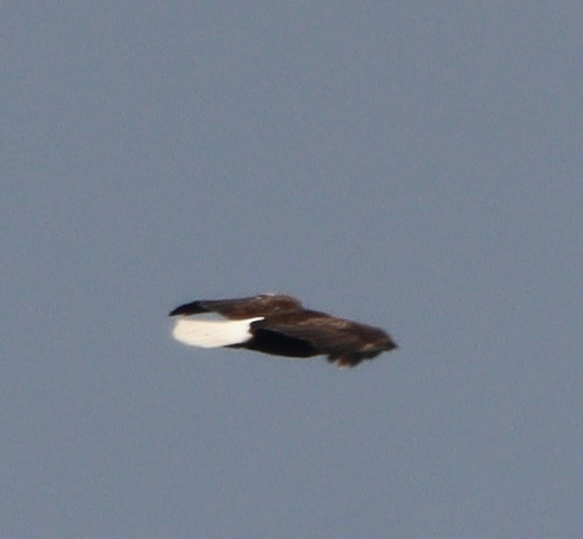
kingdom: Animalia
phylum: Chordata
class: Aves
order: Accipitriformes
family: Accipitridae
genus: Haliaeetus
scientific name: Haliaeetus leucocephalus
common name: Bald eagle
